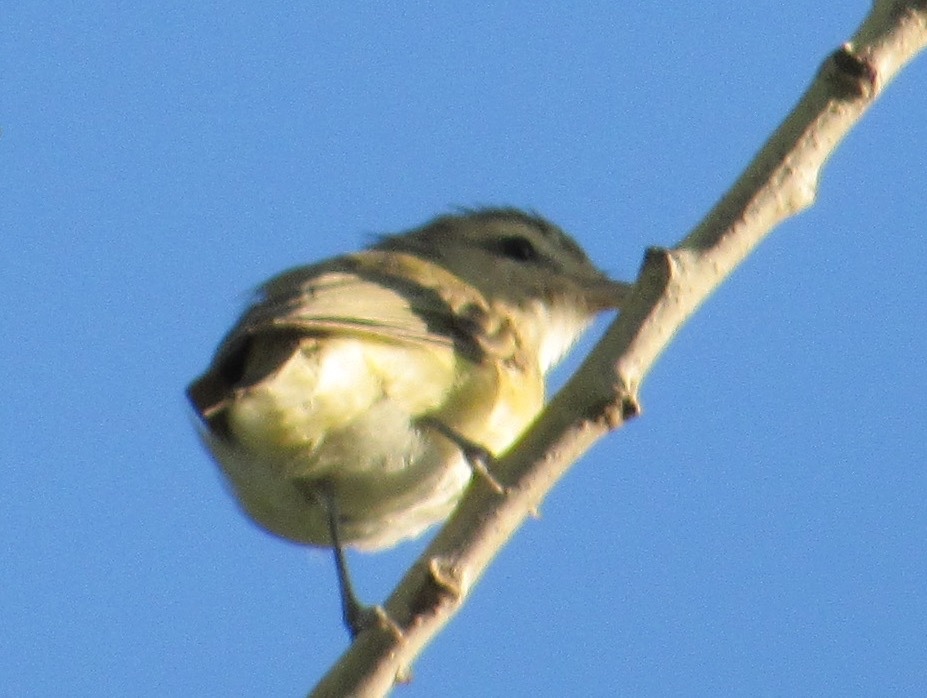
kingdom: Animalia
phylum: Chordata
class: Aves
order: Passeriformes
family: Vireonidae
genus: Vireo
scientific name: Vireo gilvus
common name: Warbling vireo
